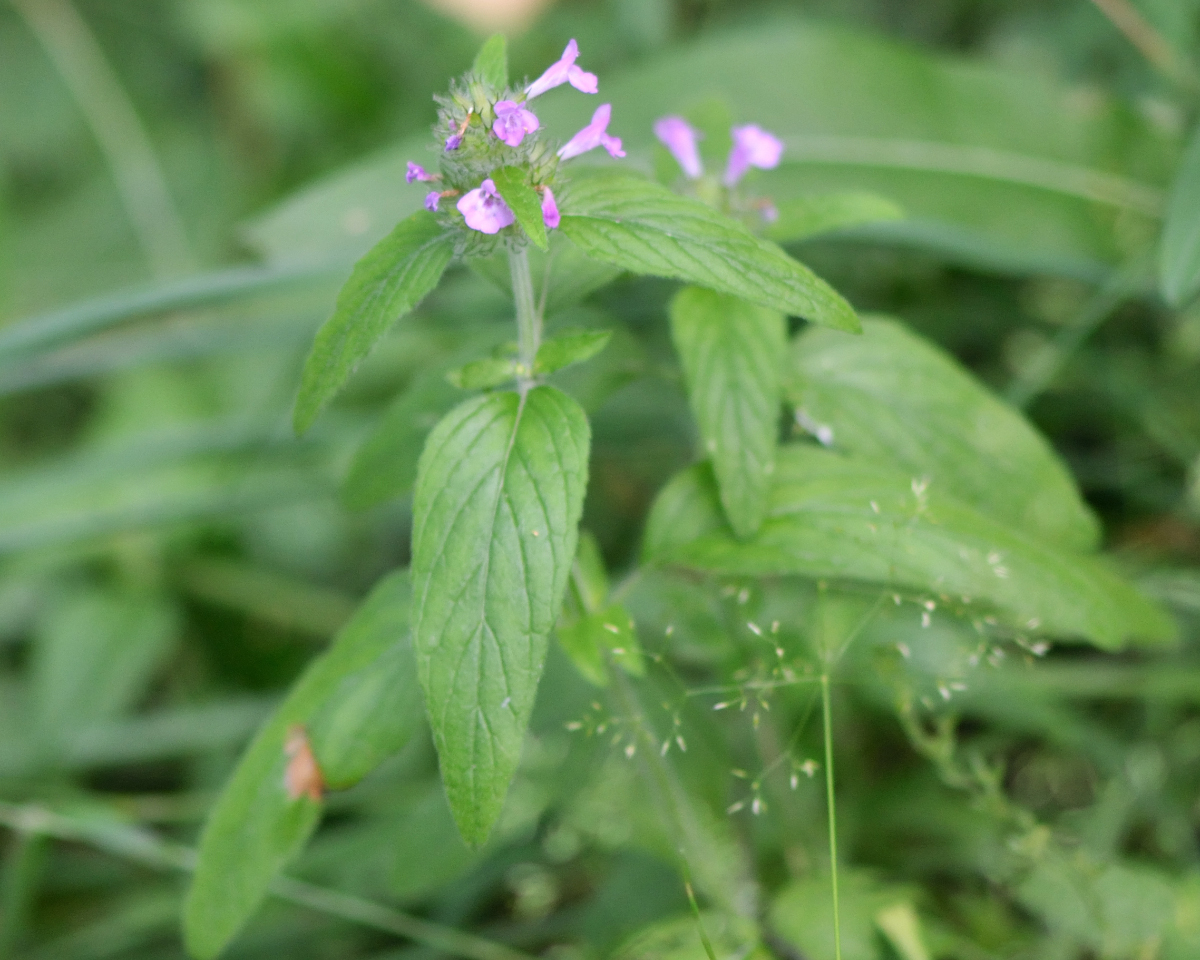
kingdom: Plantae
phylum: Tracheophyta
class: Magnoliopsida
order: Lamiales
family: Lamiaceae
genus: Clinopodium
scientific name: Clinopodium vulgare
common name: Wild basil
